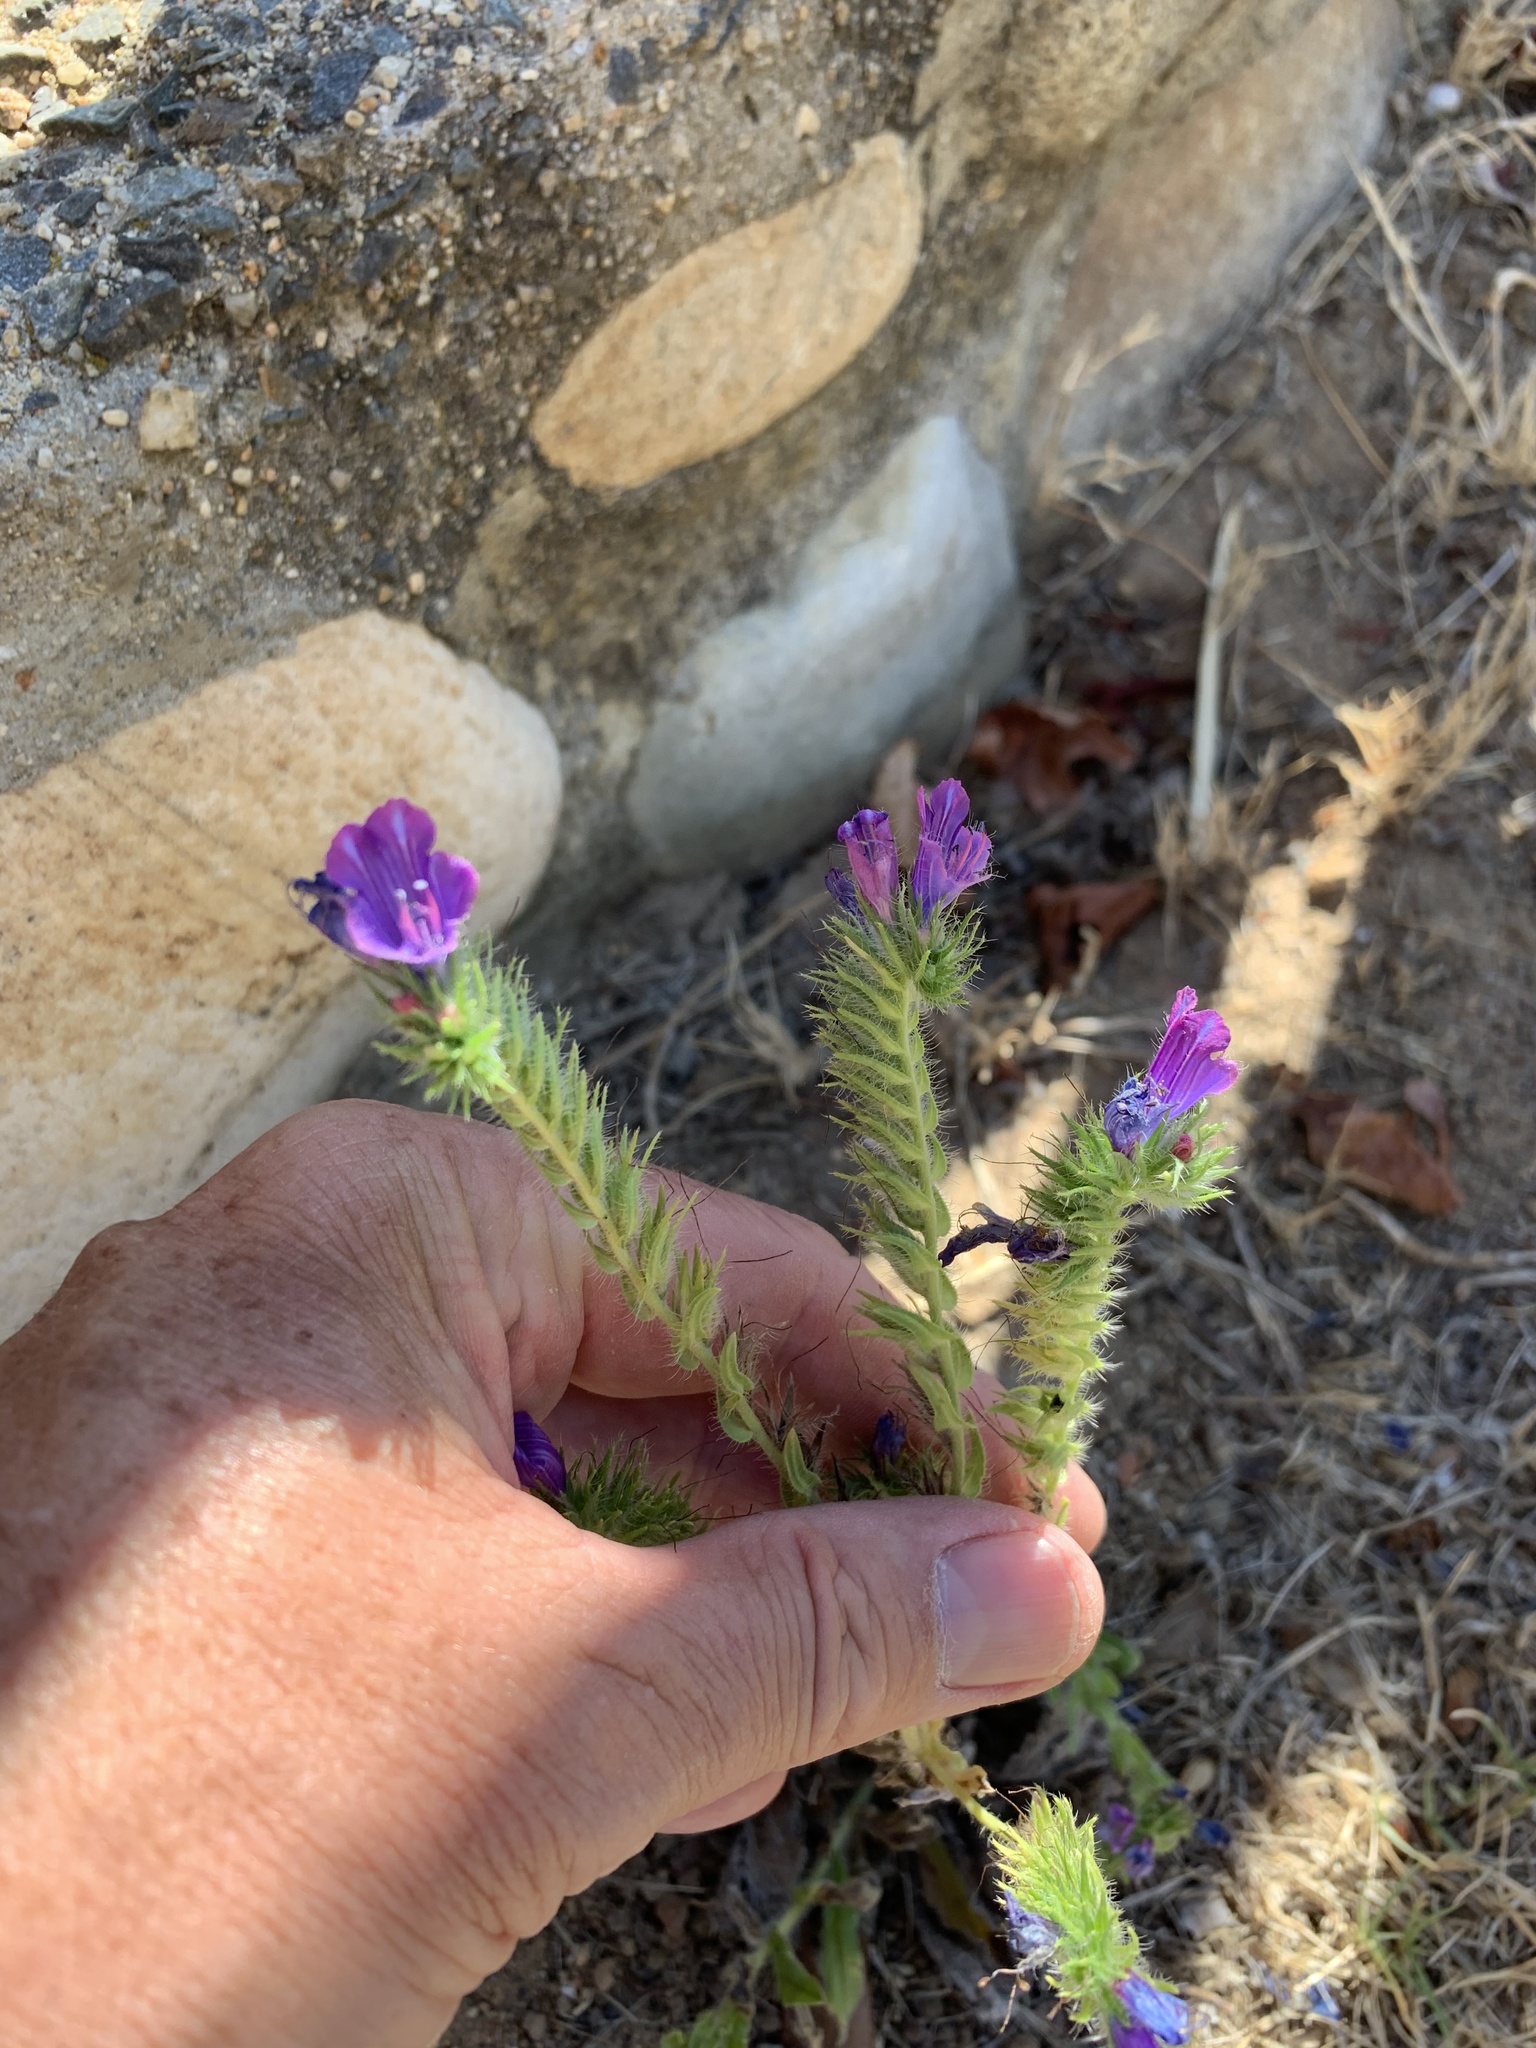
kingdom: Plantae
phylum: Tracheophyta
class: Magnoliopsida
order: Boraginales
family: Boraginaceae
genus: Echium
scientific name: Echium plantagineum
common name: Purple viper's-bugloss
